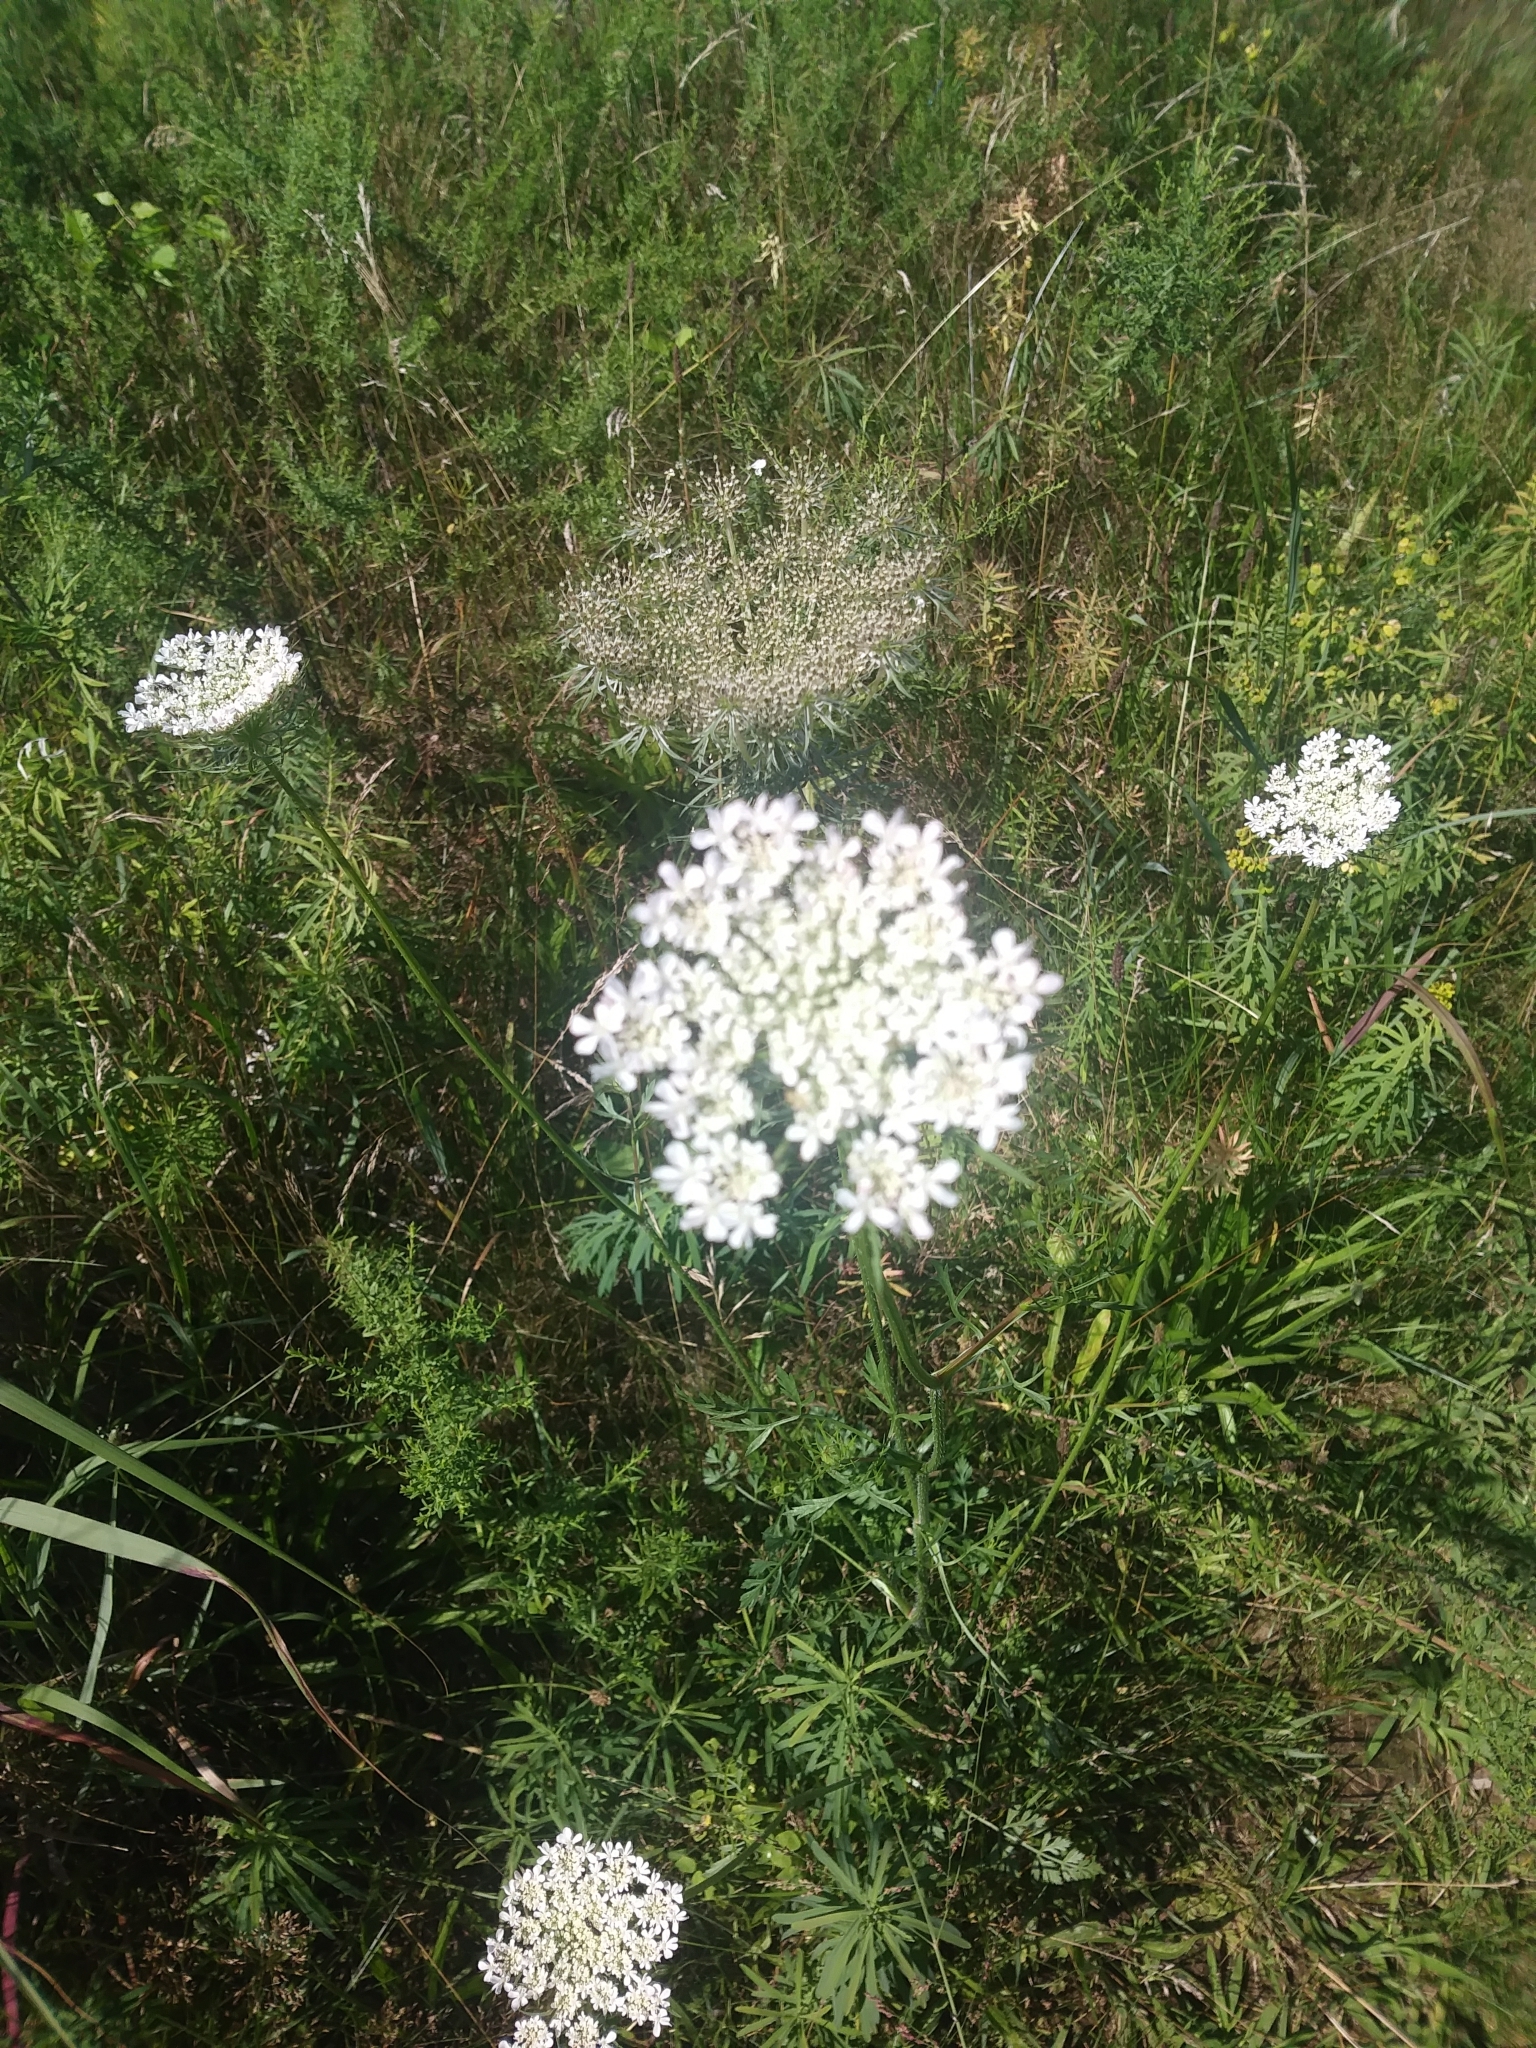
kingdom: Plantae
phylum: Tracheophyta
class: Magnoliopsida
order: Apiales
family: Apiaceae
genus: Daucus
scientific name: Daucus carota
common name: Wild carrot
